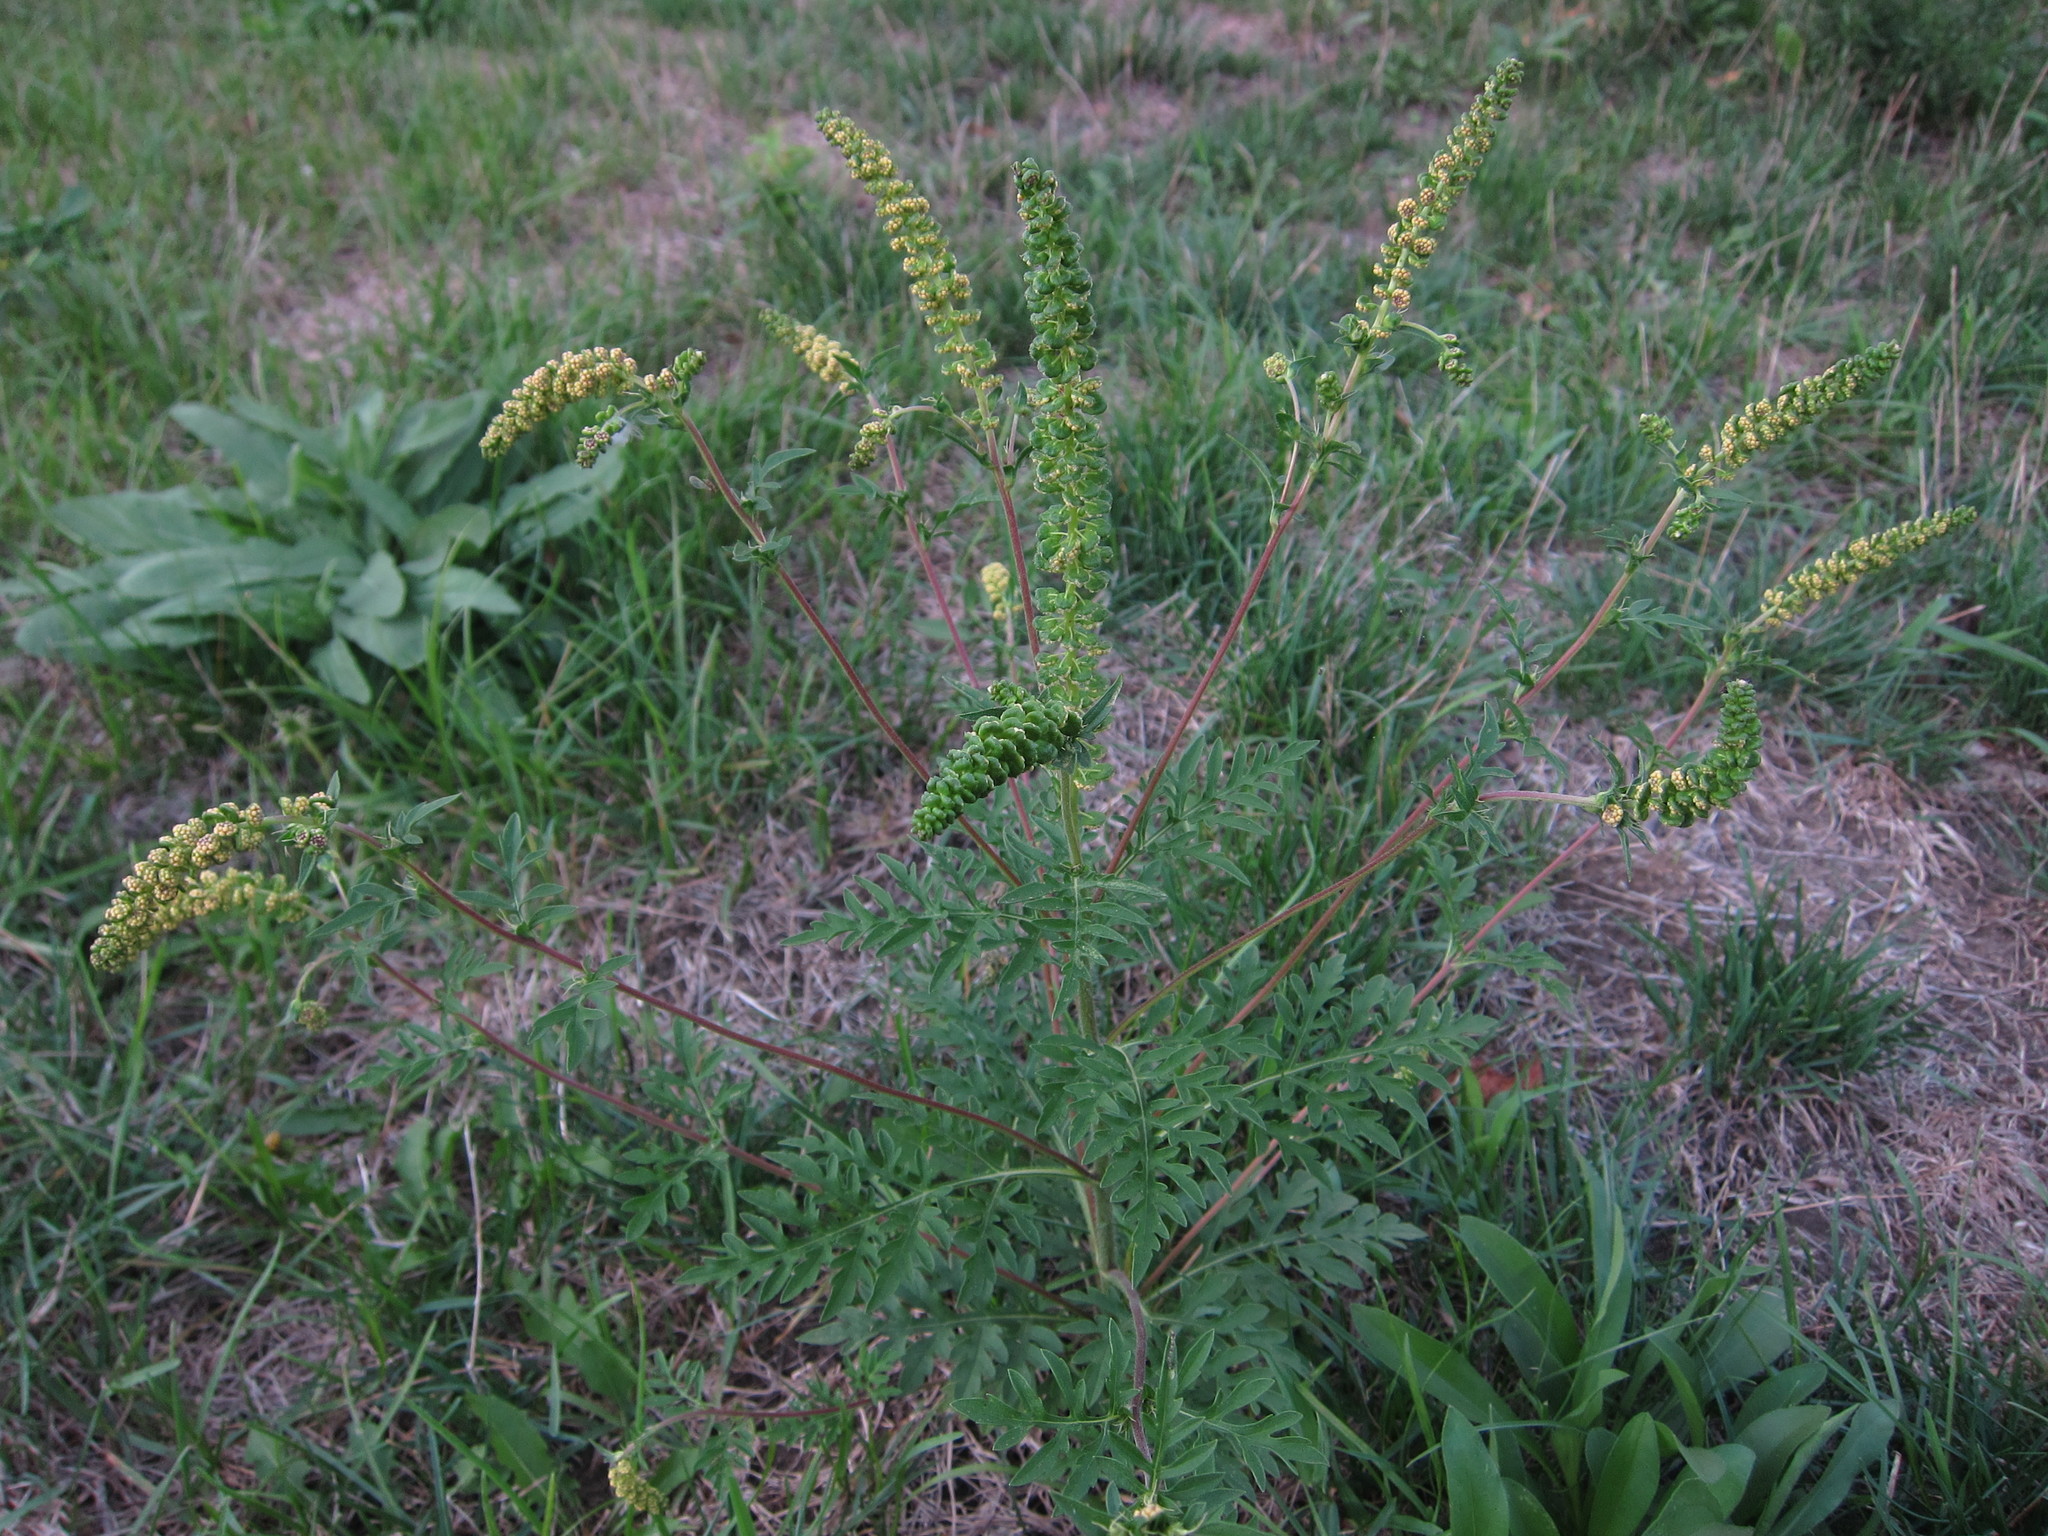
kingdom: Plantae
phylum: Tracheophyta
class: Magnoliopsida
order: Asterales
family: Asteraceae
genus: Ambrosia
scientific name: Ambrosia artemisiifolia
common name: Annual ragweed
